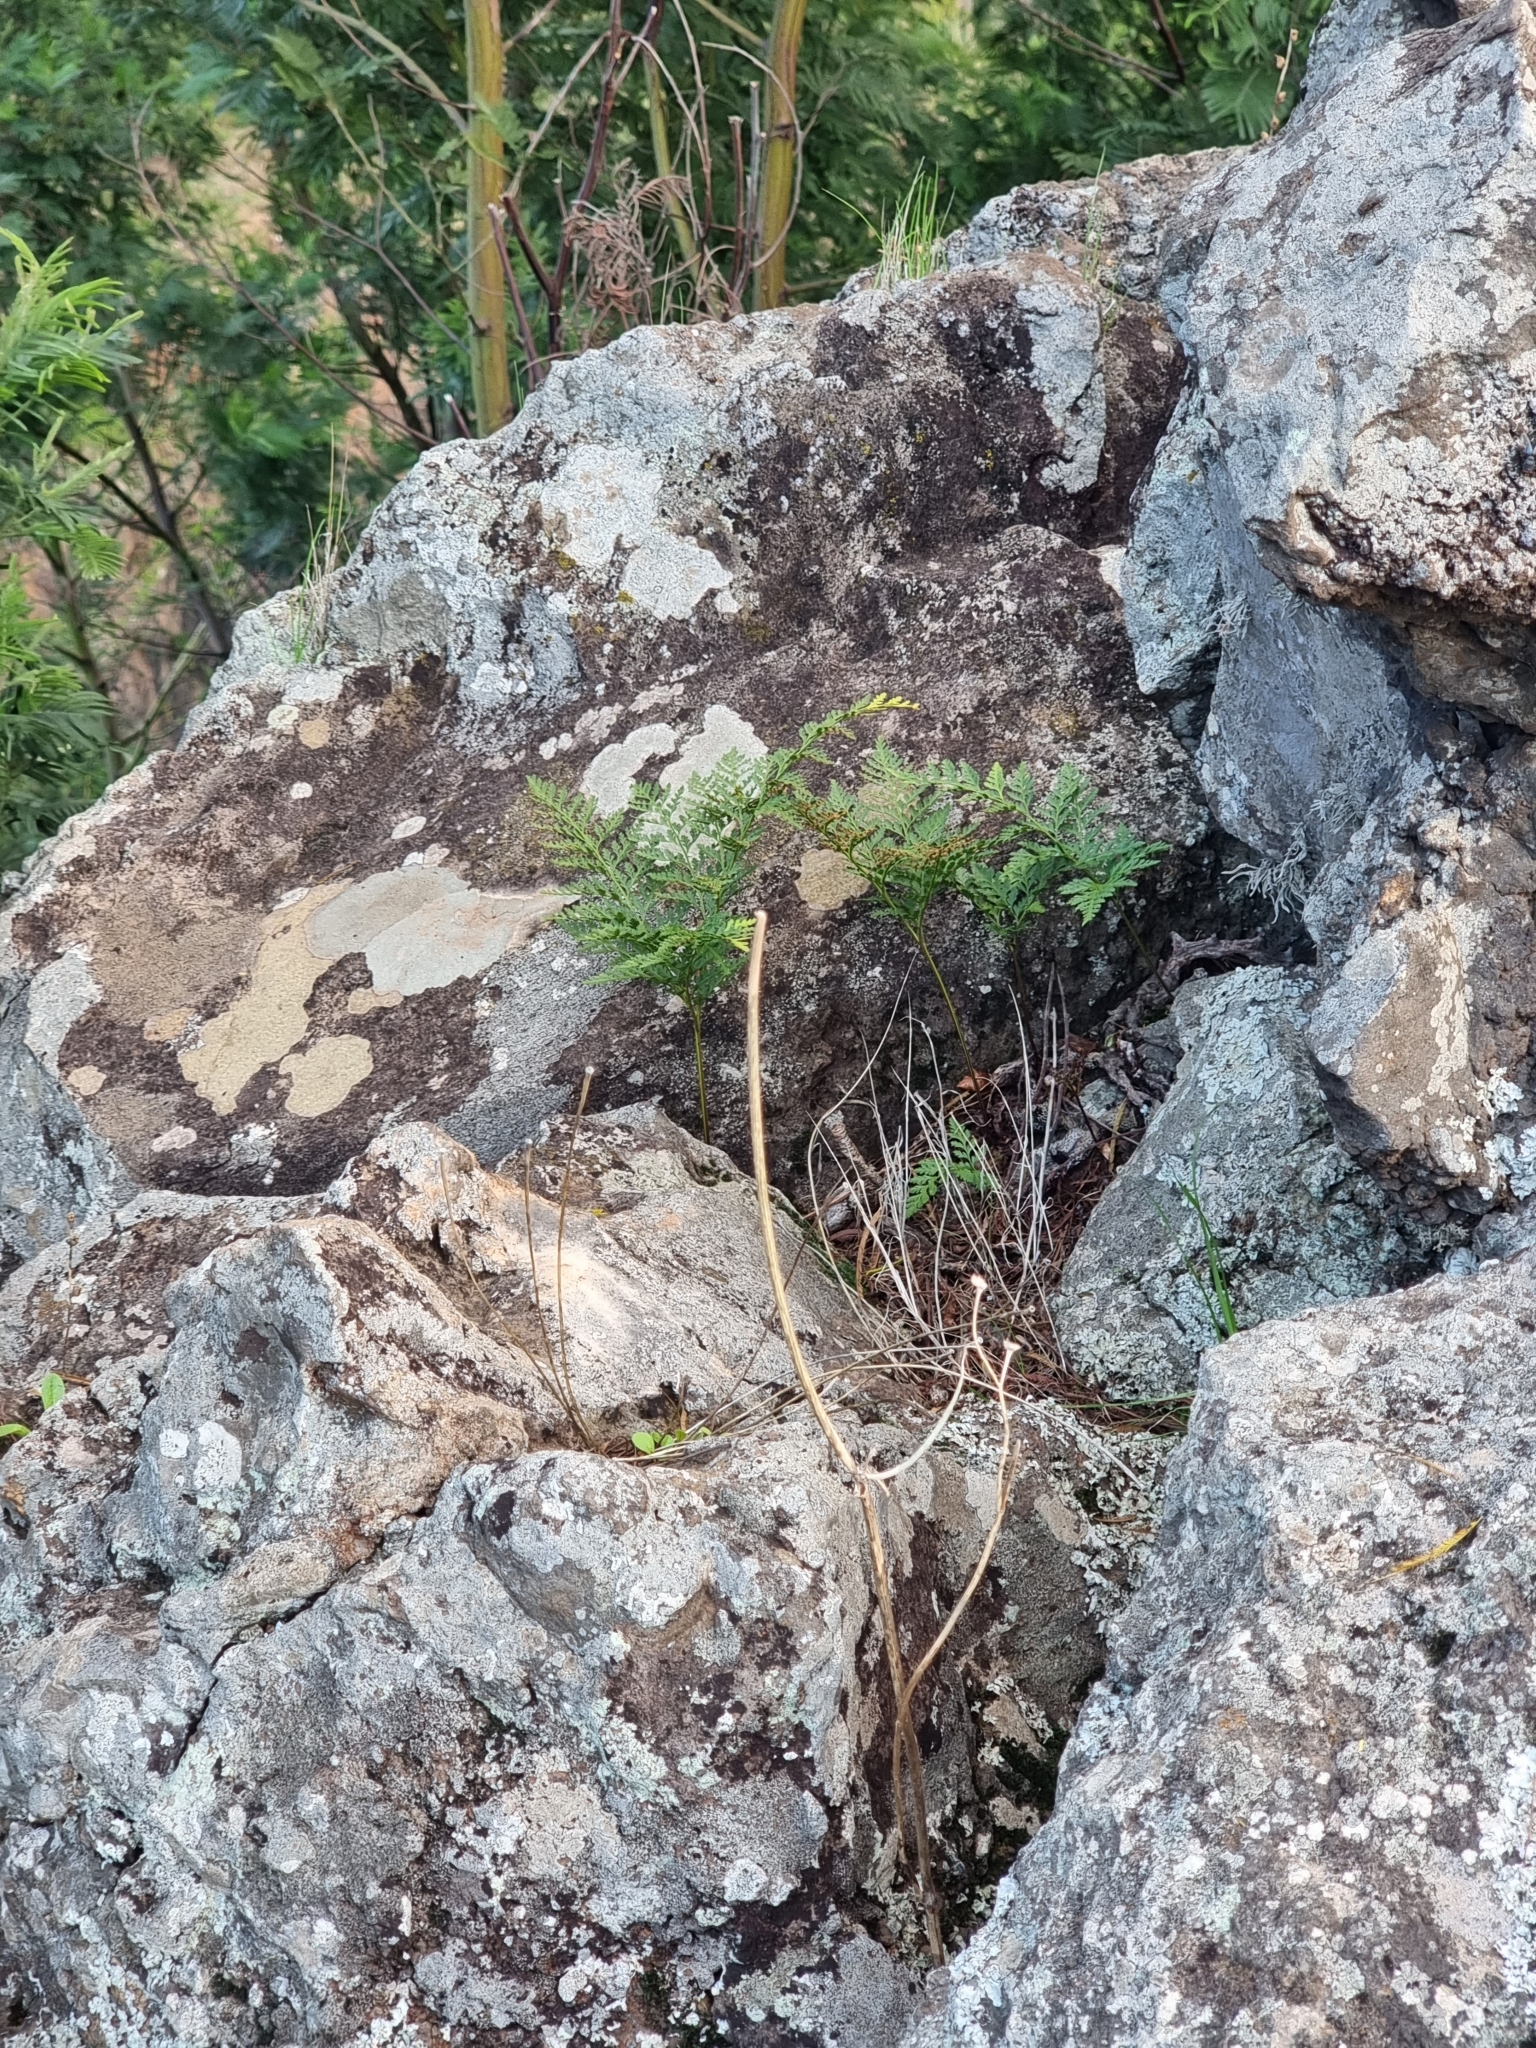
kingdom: Plantae
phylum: Tracheophyta
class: Polypodiopsida
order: Polypodiales
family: Davalliaceae
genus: Davallia
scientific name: Davallia canariensis
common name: Hare's-foot fern
